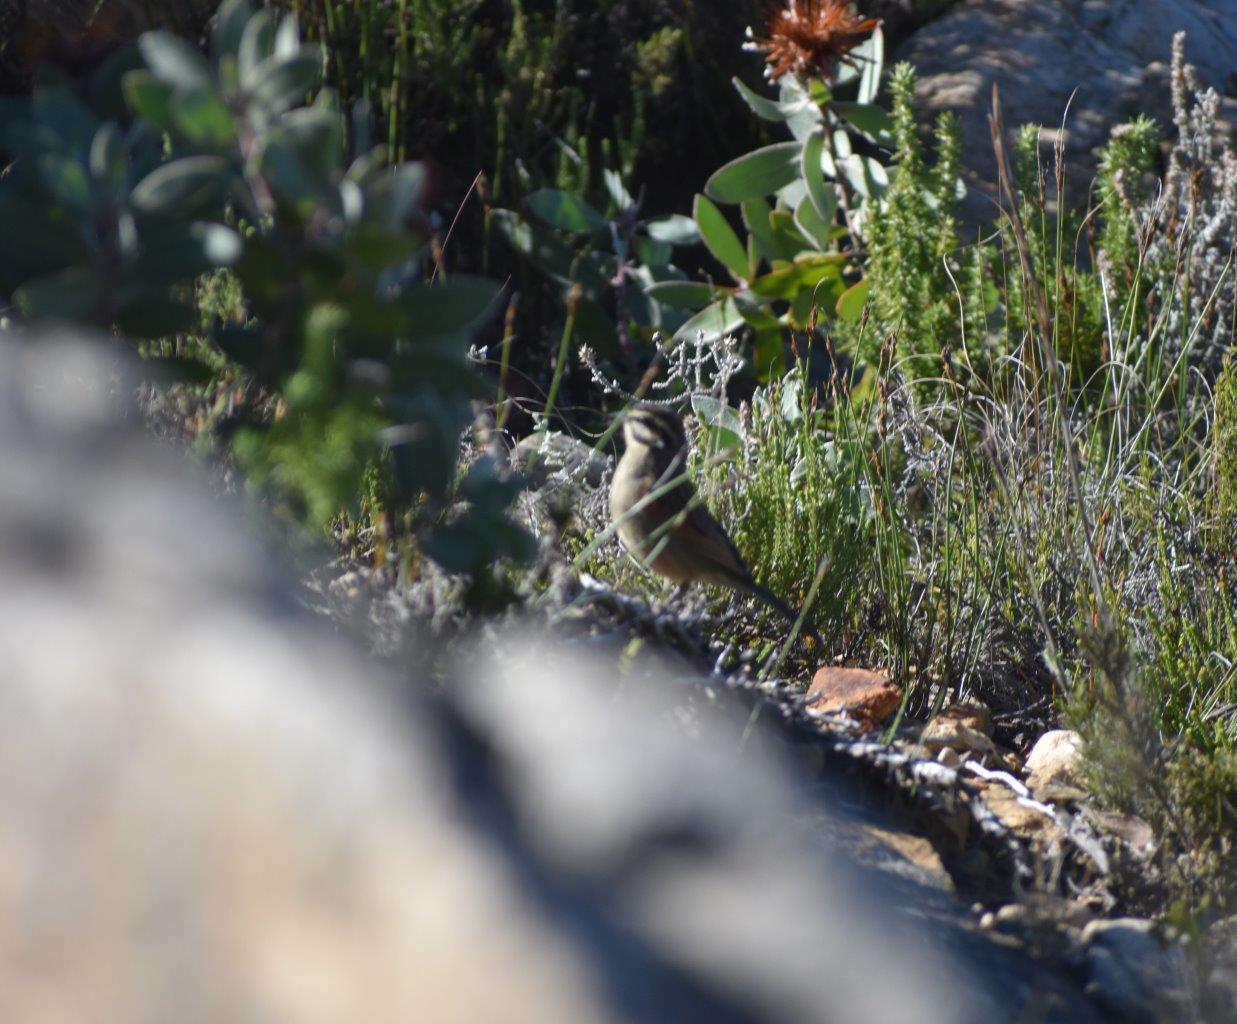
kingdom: Animalia
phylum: Chordata
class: Aves
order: Passeriformes
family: Emberizidae
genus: Emberiza
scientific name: Emberiza capensis
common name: Cape bunting
